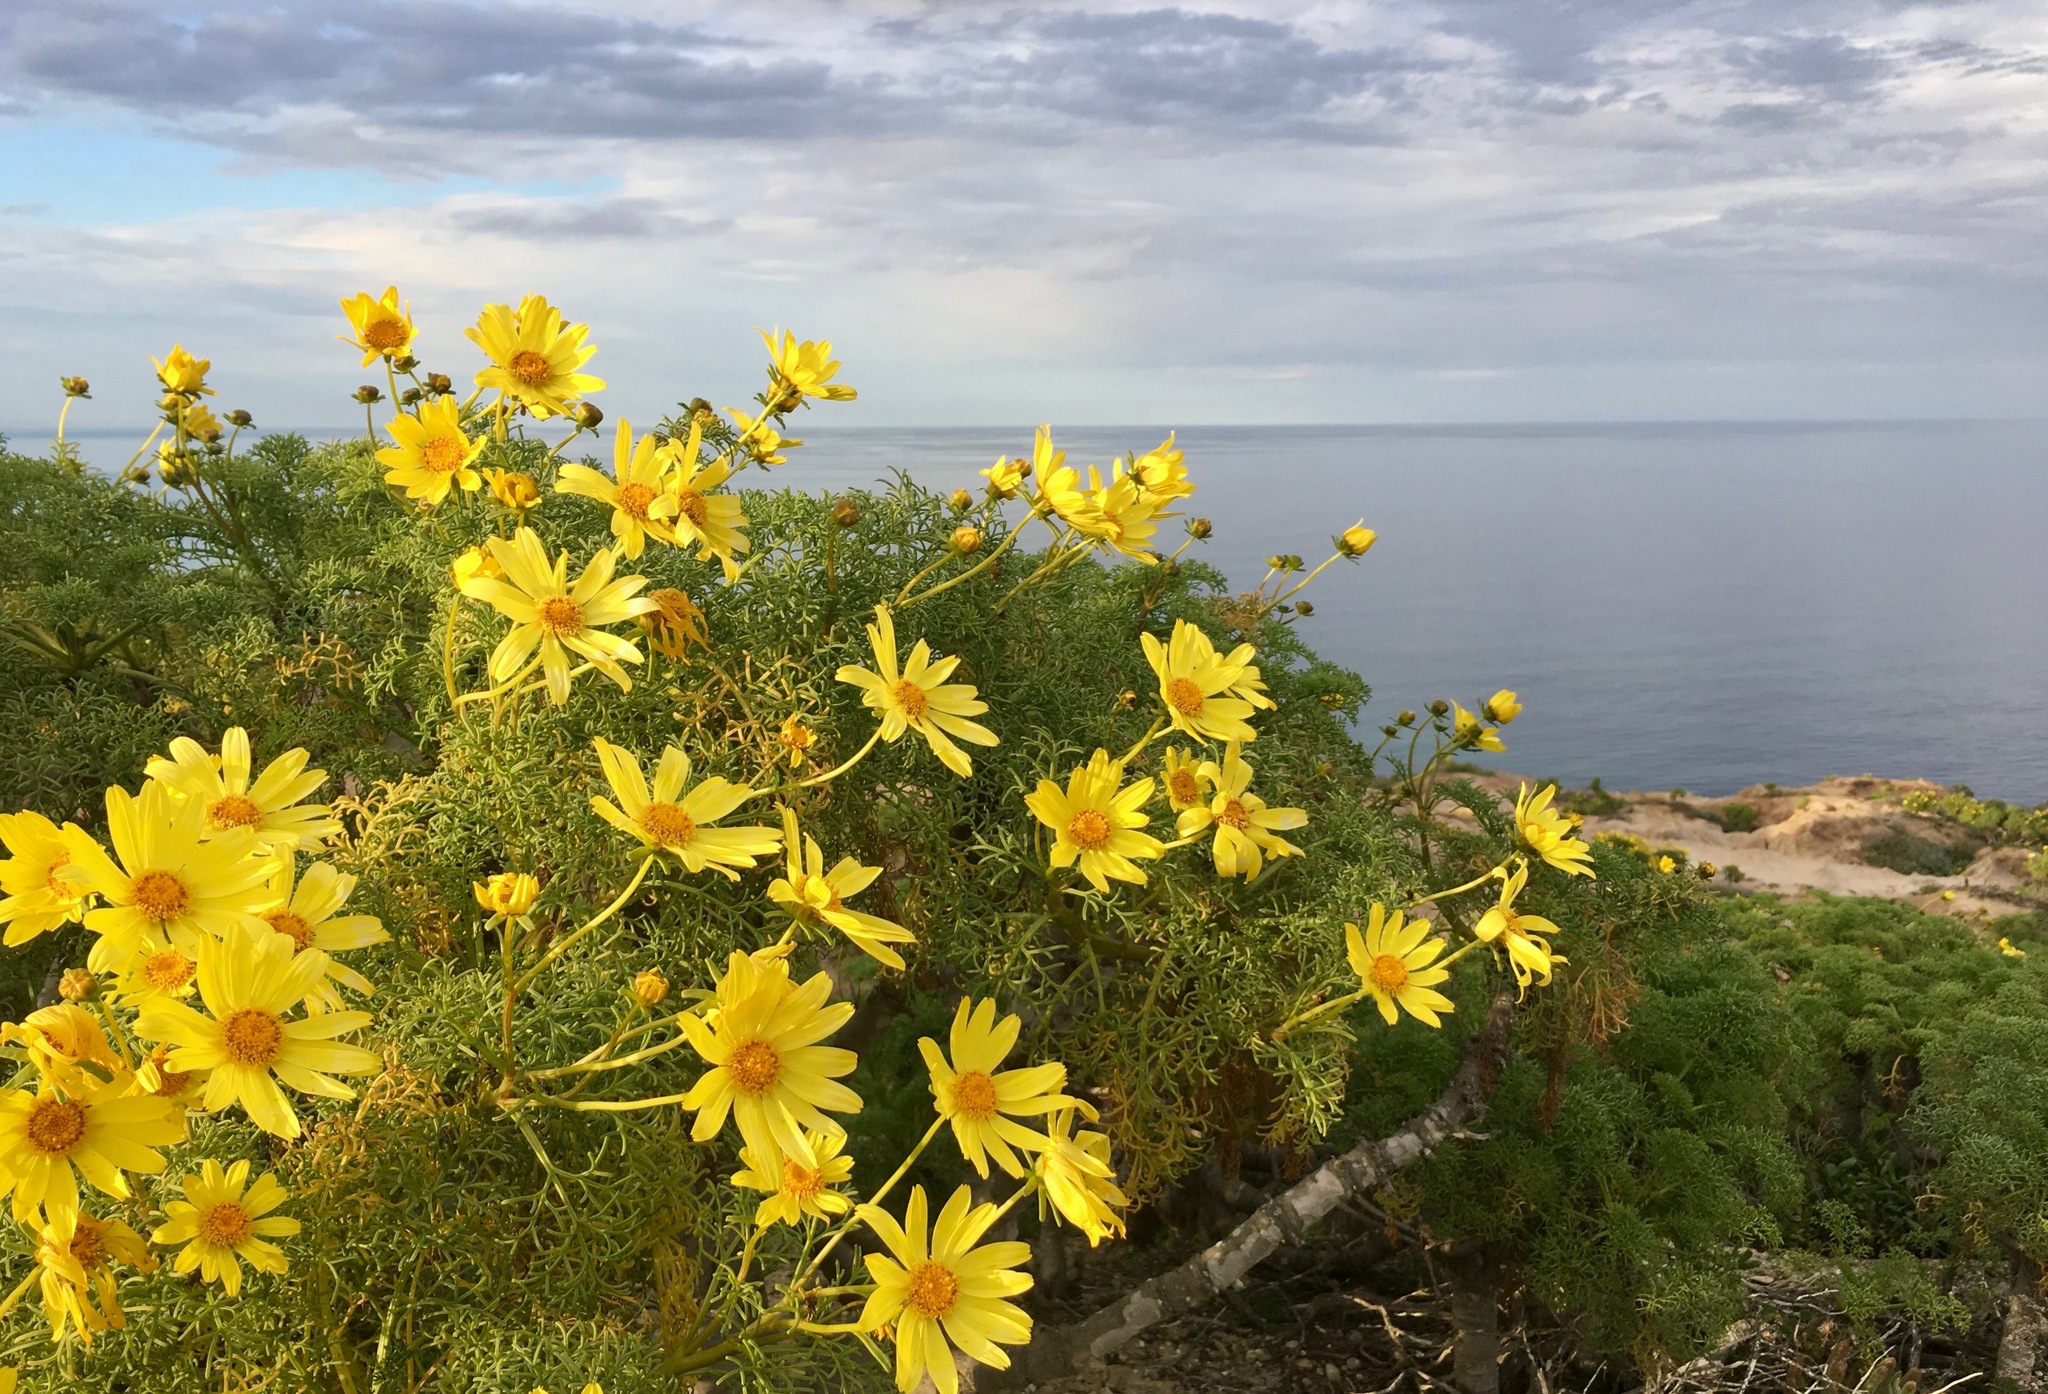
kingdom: Plantae
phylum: Tracheophyta
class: Magnoliopsida
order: Asterales
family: Asteraceae
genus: Coreopsis
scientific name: Coreopsis gigantea
